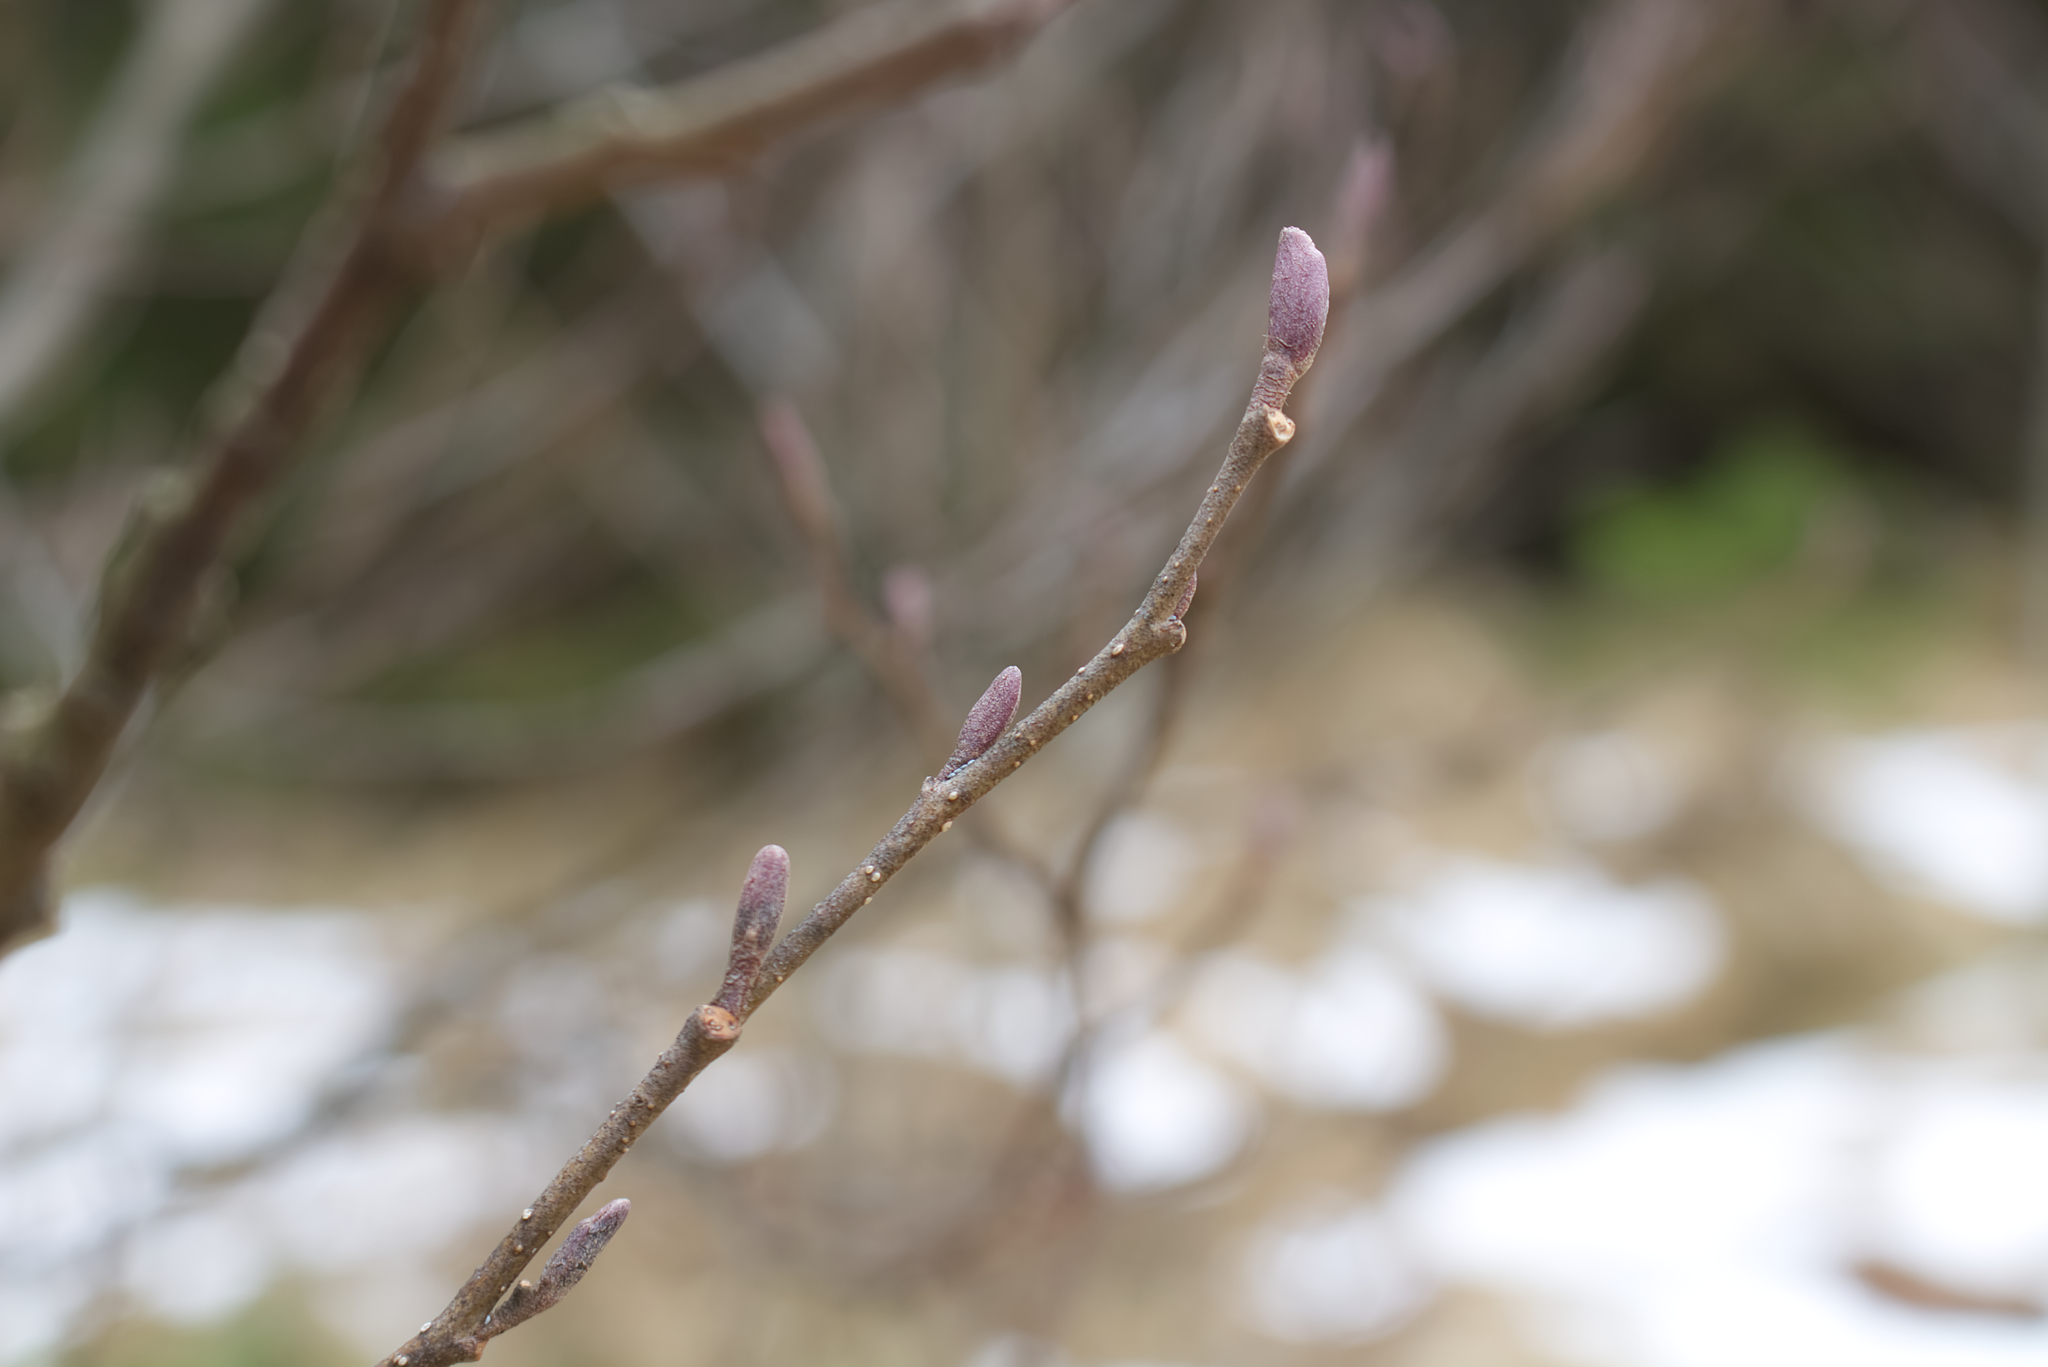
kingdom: Plantae
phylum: Tracheophyta
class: Magnoliopsida
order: Fagales
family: Betulaceae
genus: Alnus
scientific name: Alnus glutinosa
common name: Black alder
